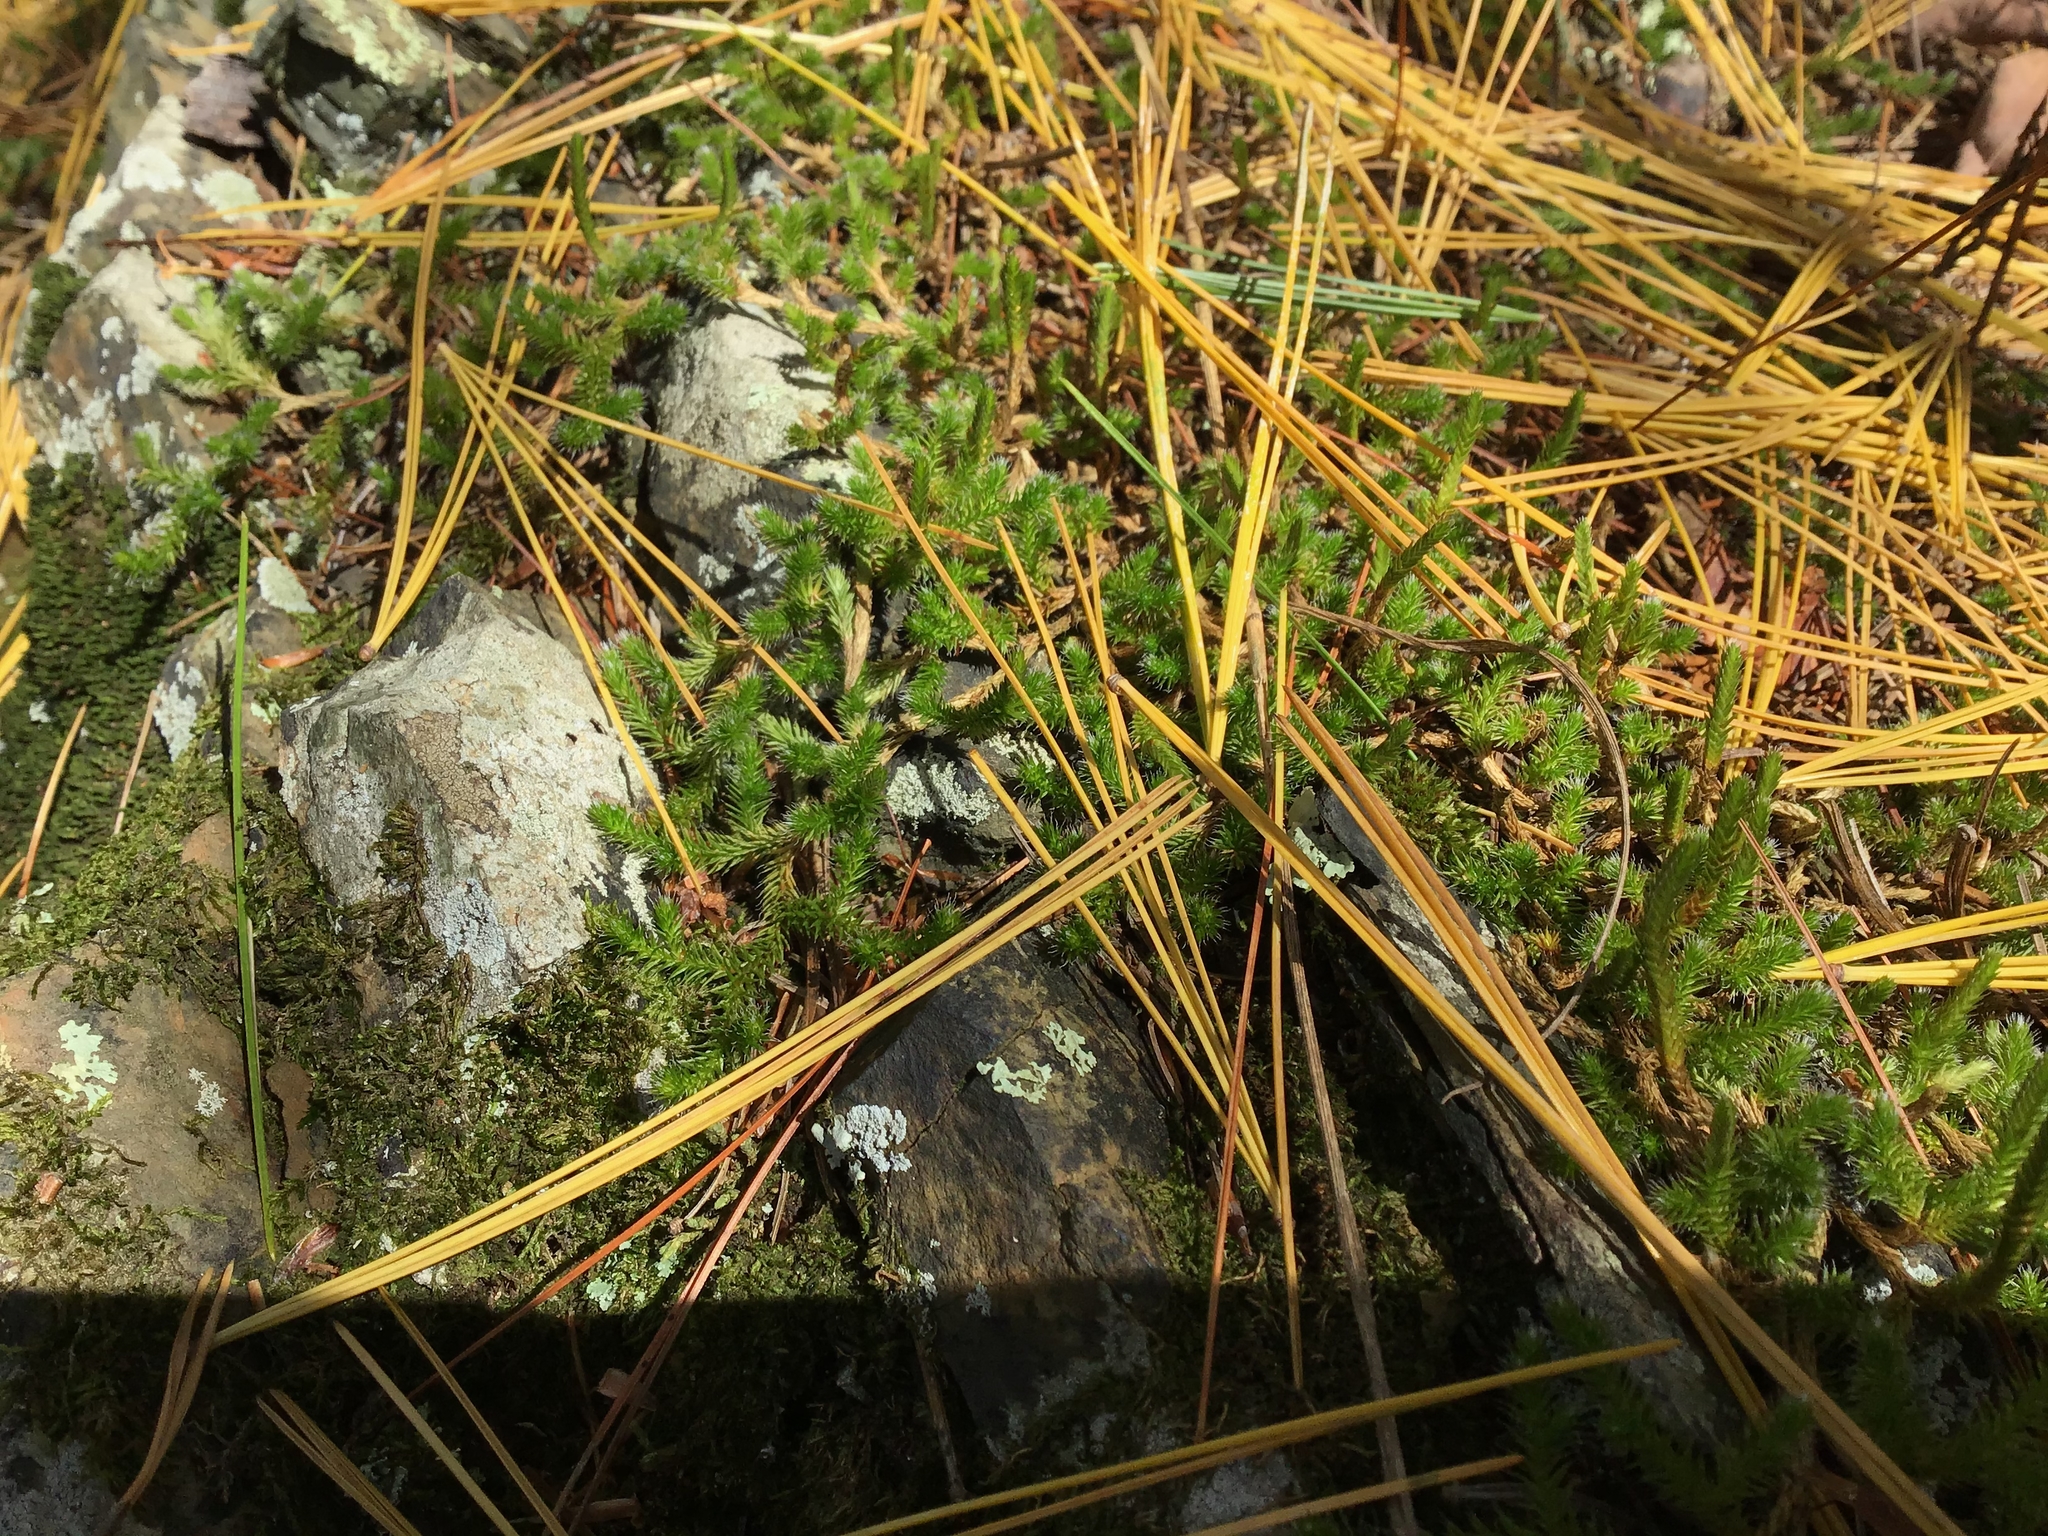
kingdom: Plantae
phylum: Tracheophyta
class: Lycopodiopsida
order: Selaginellales
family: Selaginellaceae
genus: Selaginella
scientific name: Selaginella rupestris
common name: Dwarf spikemoss
